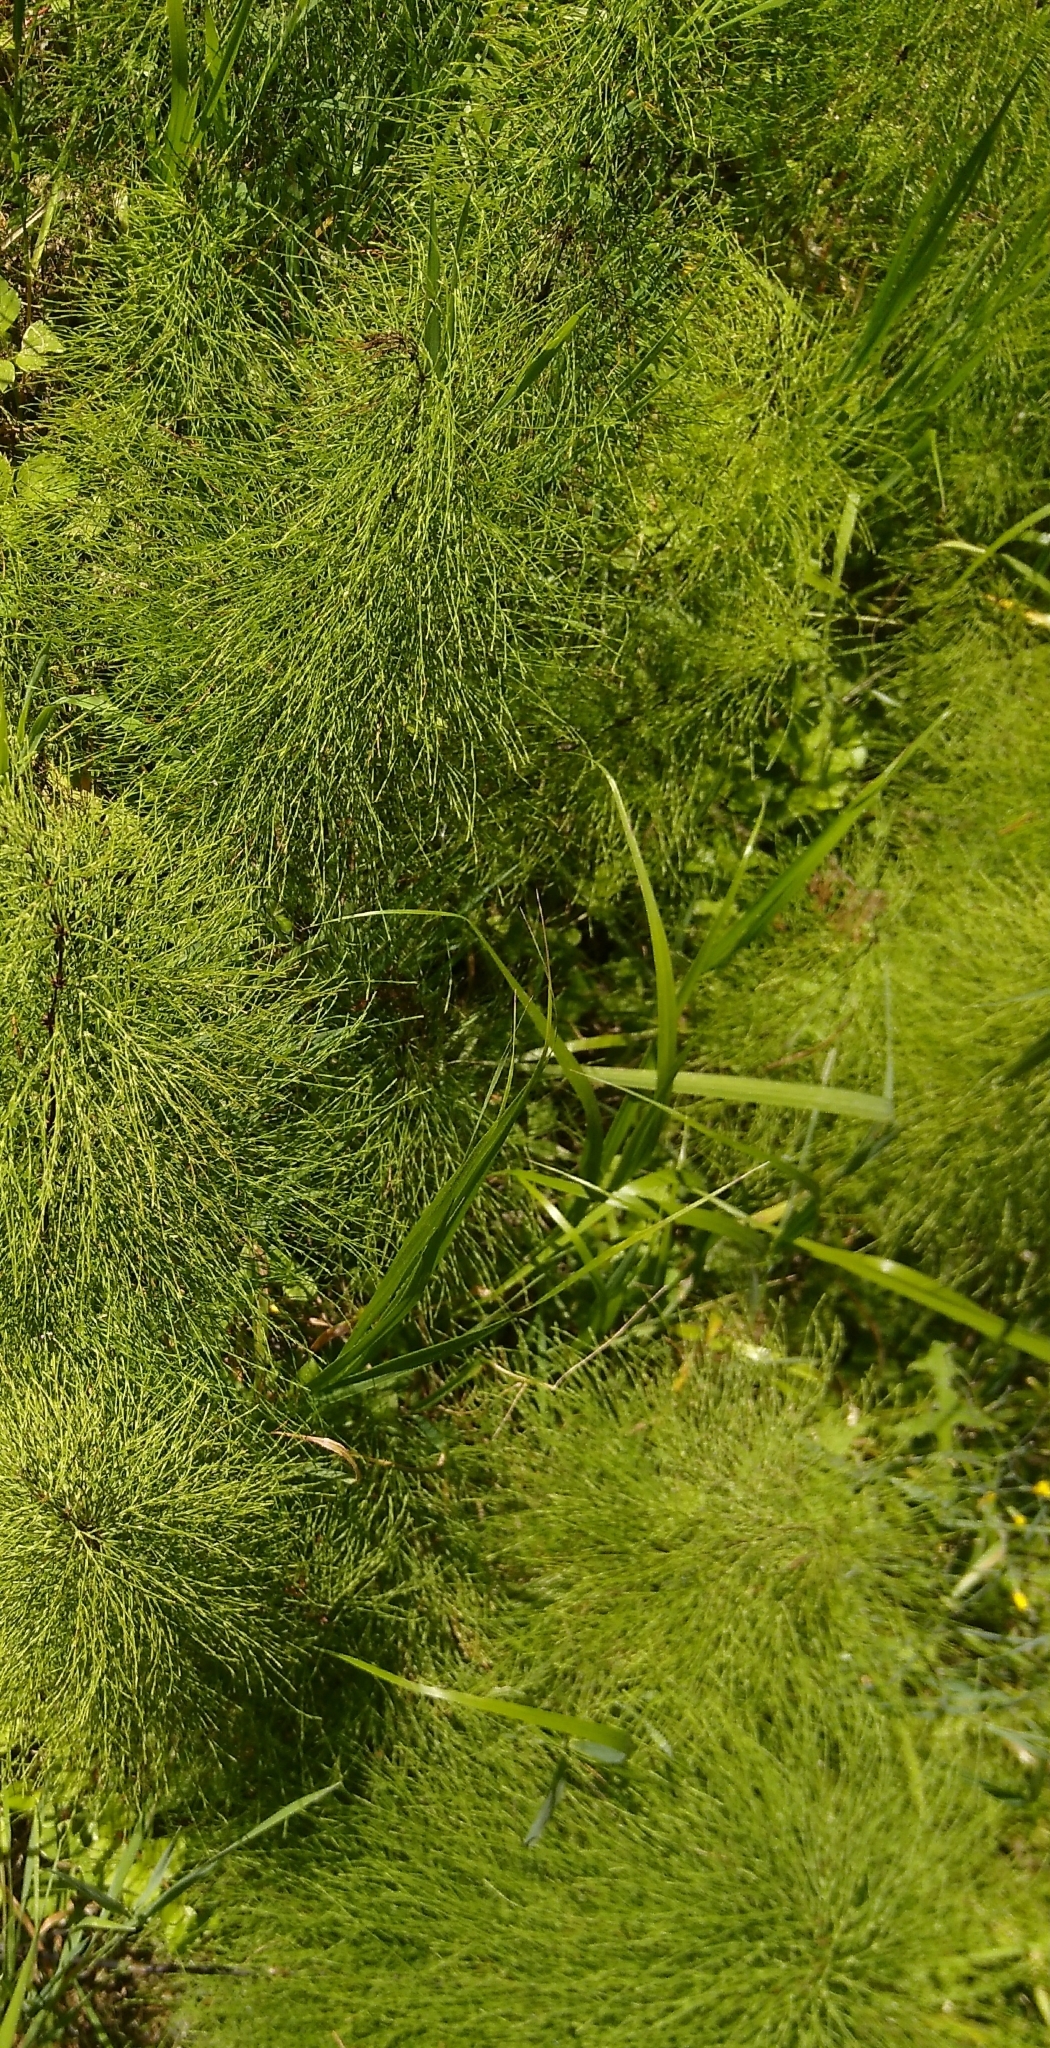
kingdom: Plantae
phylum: Tracheophyta
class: Polypodiopsida
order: Equisetales
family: Equisetaceae
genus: Equisetum
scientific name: Equisetum sylvaticum
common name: Wood horsetail
